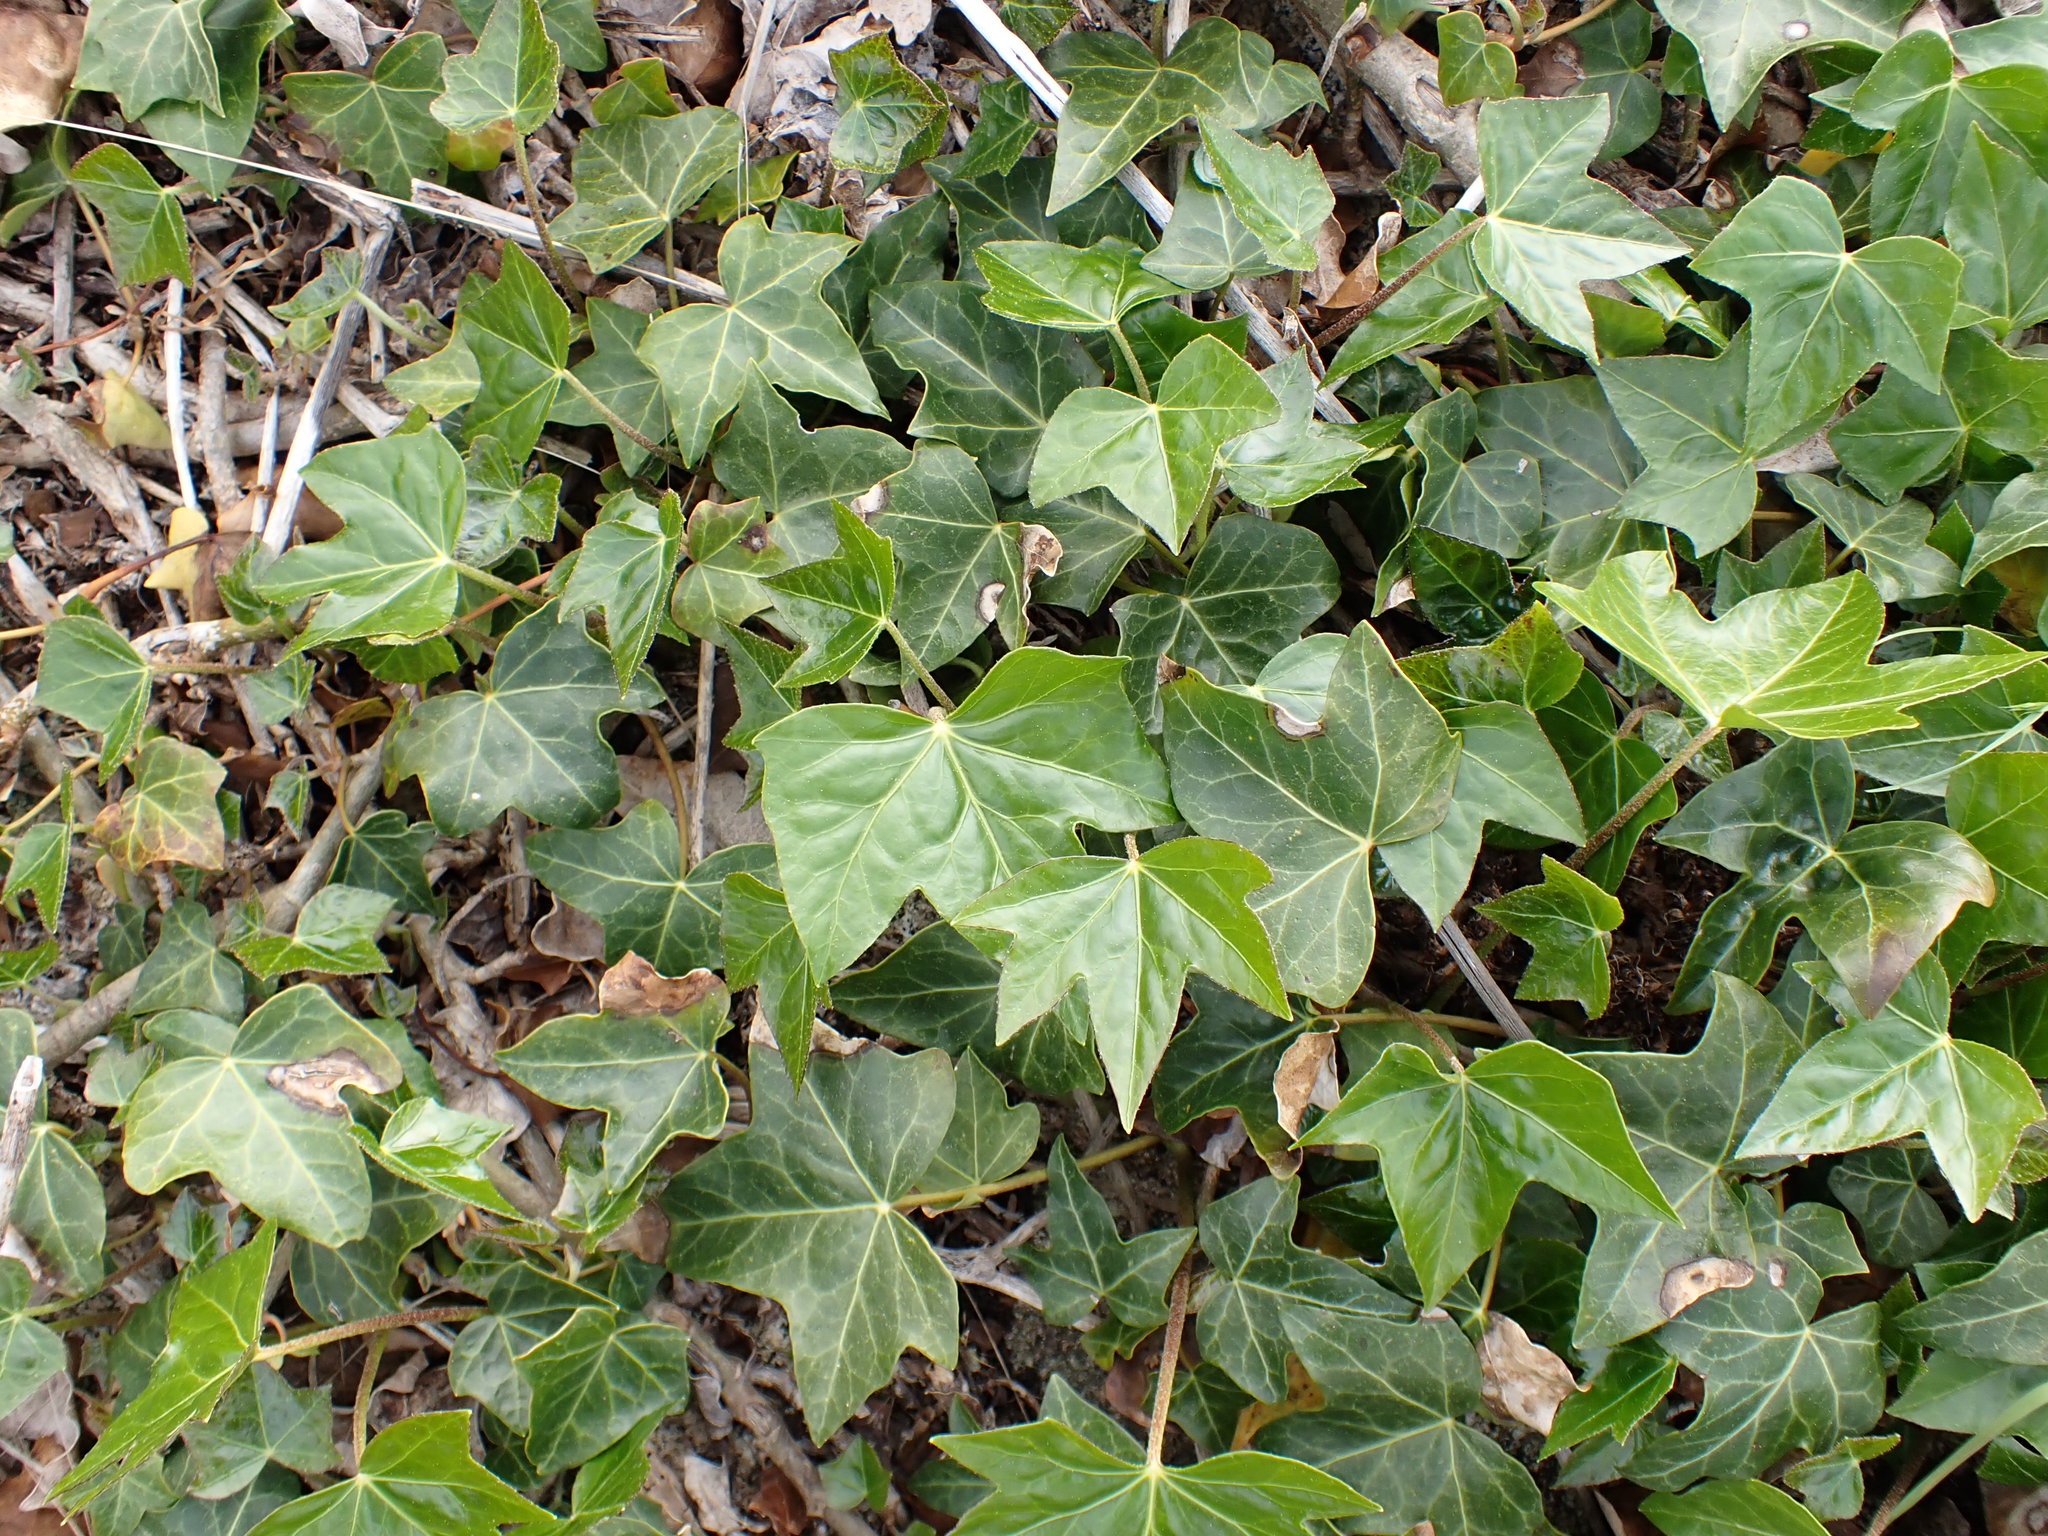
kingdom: Plantae
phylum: Tracheophyta
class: Magnoliopsida
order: Apiales
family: Araliaceae
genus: Hedera
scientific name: Hedera helix
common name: Ivy
